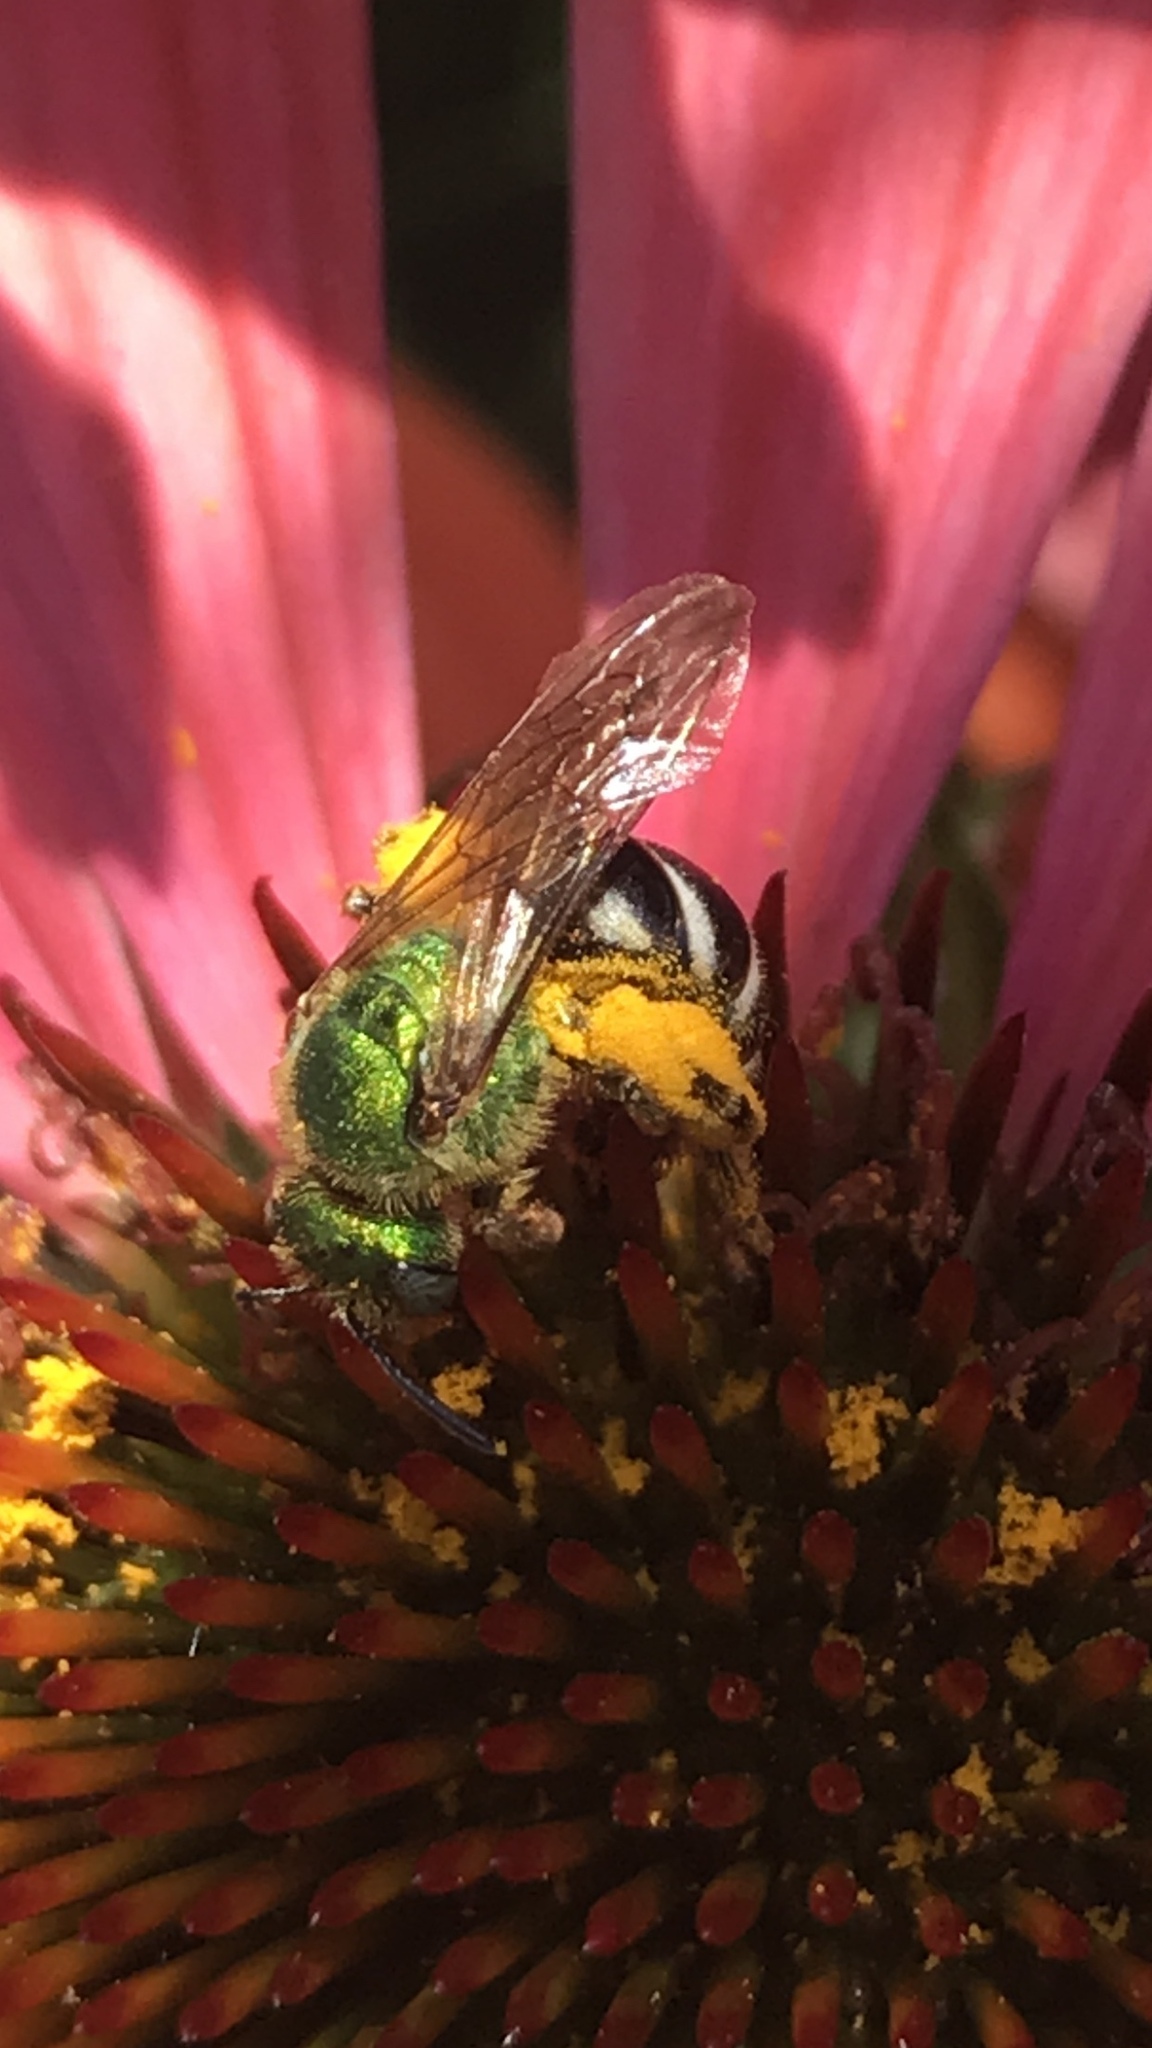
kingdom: Animalia
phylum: Arthropoda
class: Insecta
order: Hymenoptera
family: Halictidae
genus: Agapostemon
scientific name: Agapostemon virescens
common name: Bicolored striped sweat bee
